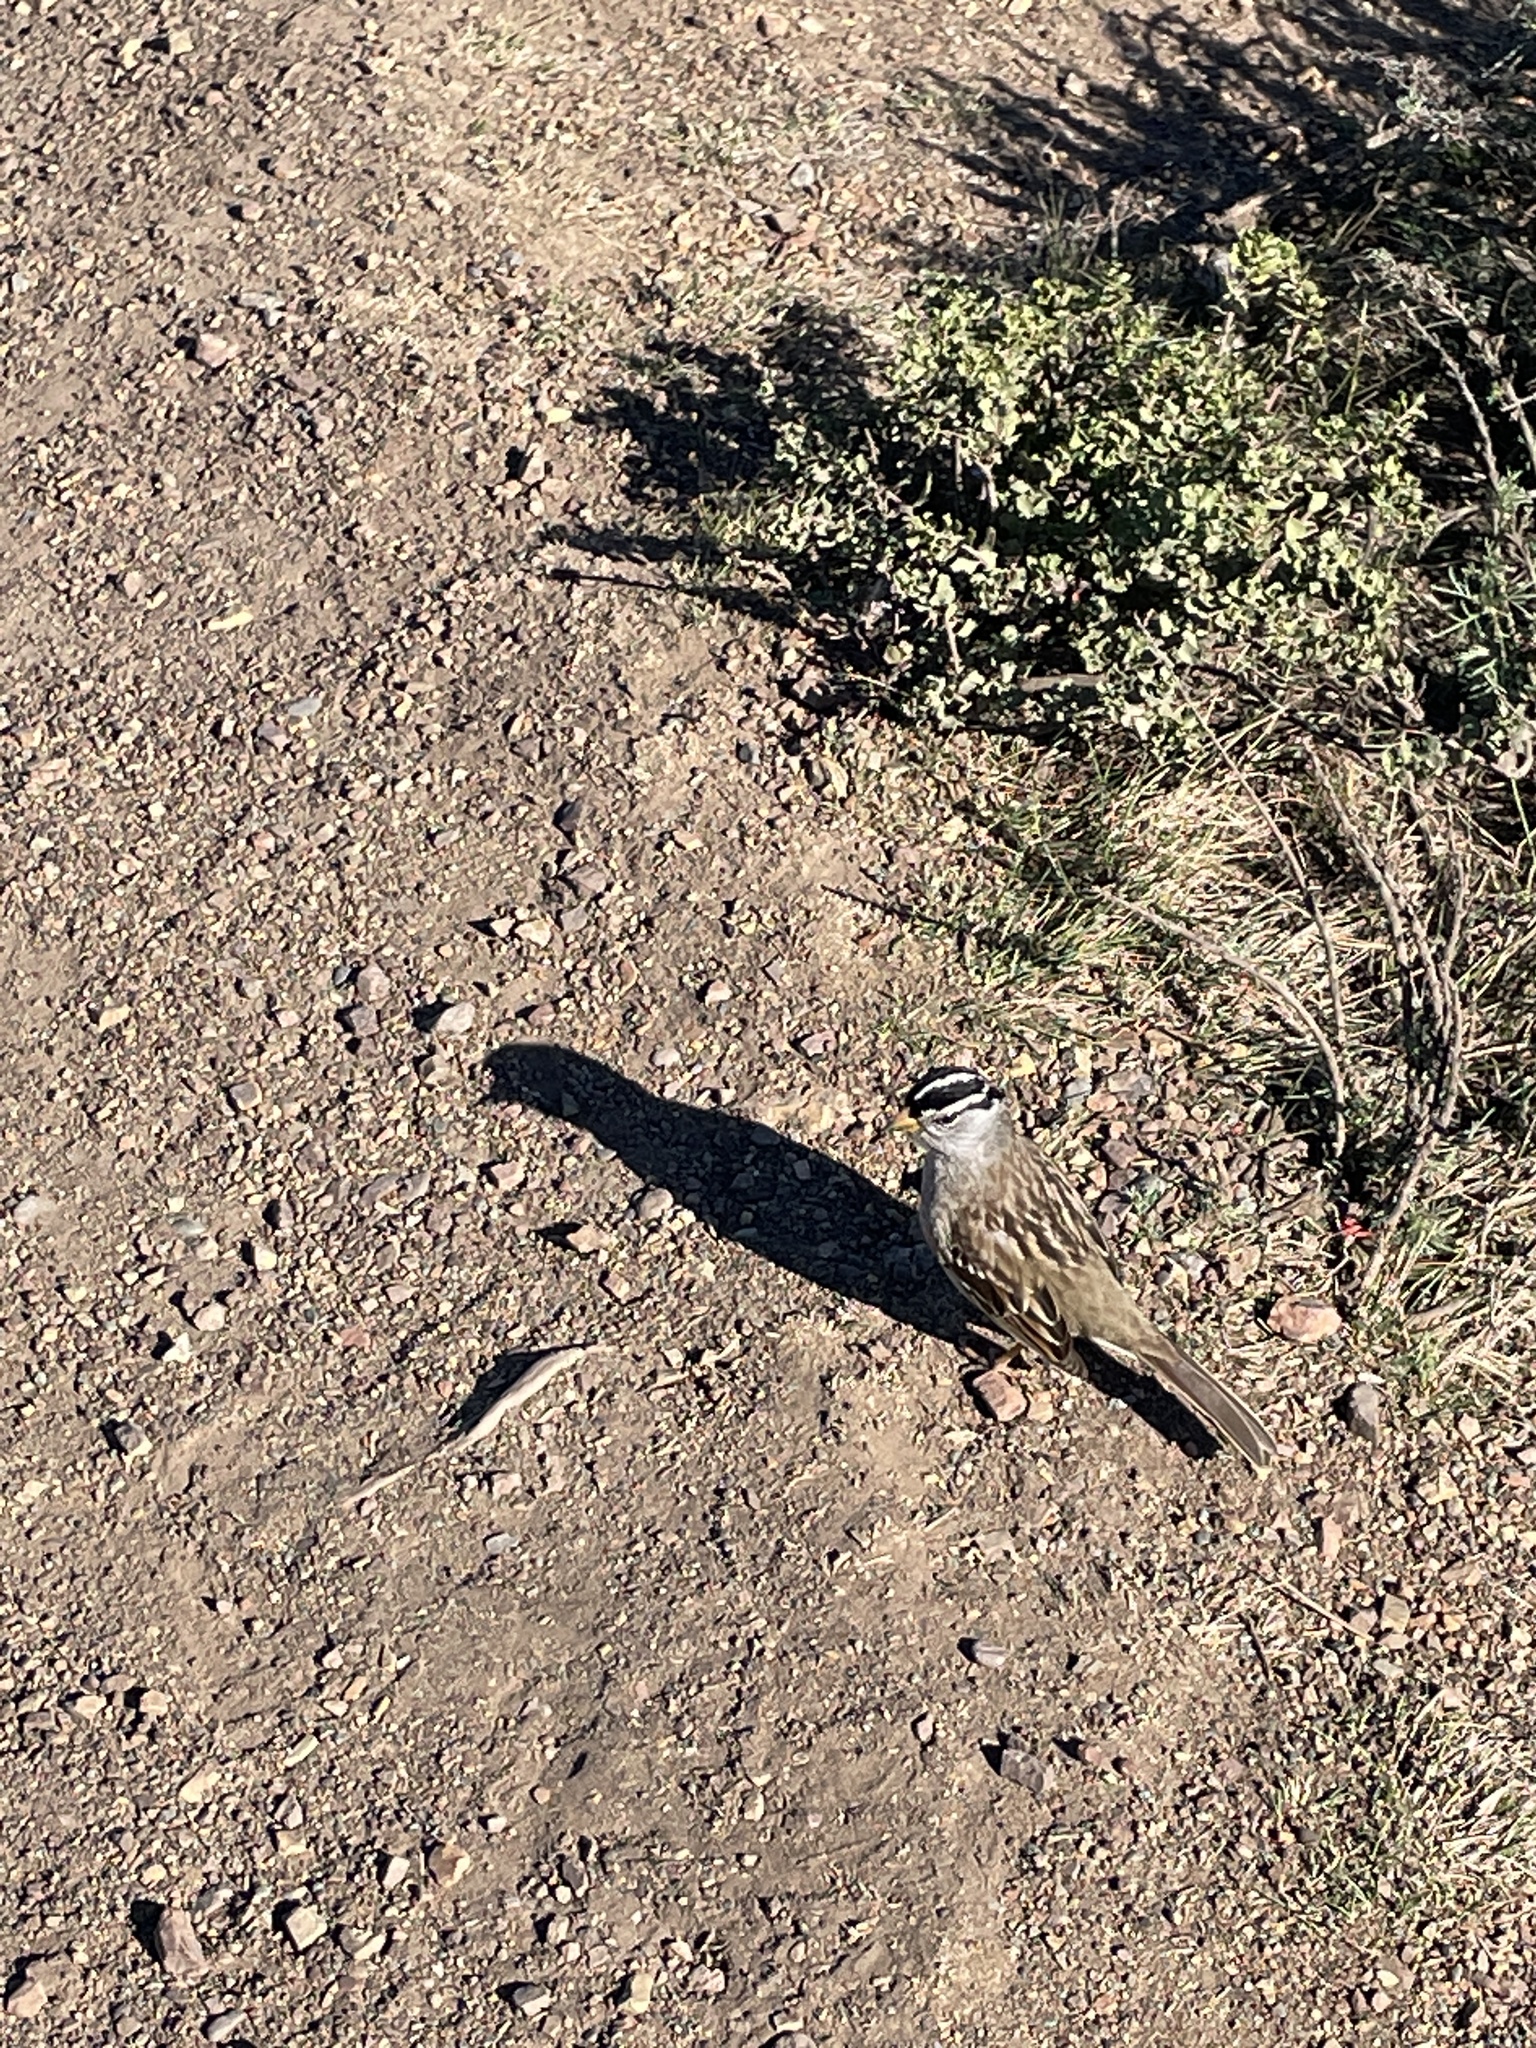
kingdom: Animalia
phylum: Chordata
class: Aves
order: Passeriformes
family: Passerellidae
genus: Zonotrichia
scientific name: Zonotrichia leucophrys
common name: White-crowned sparrow
